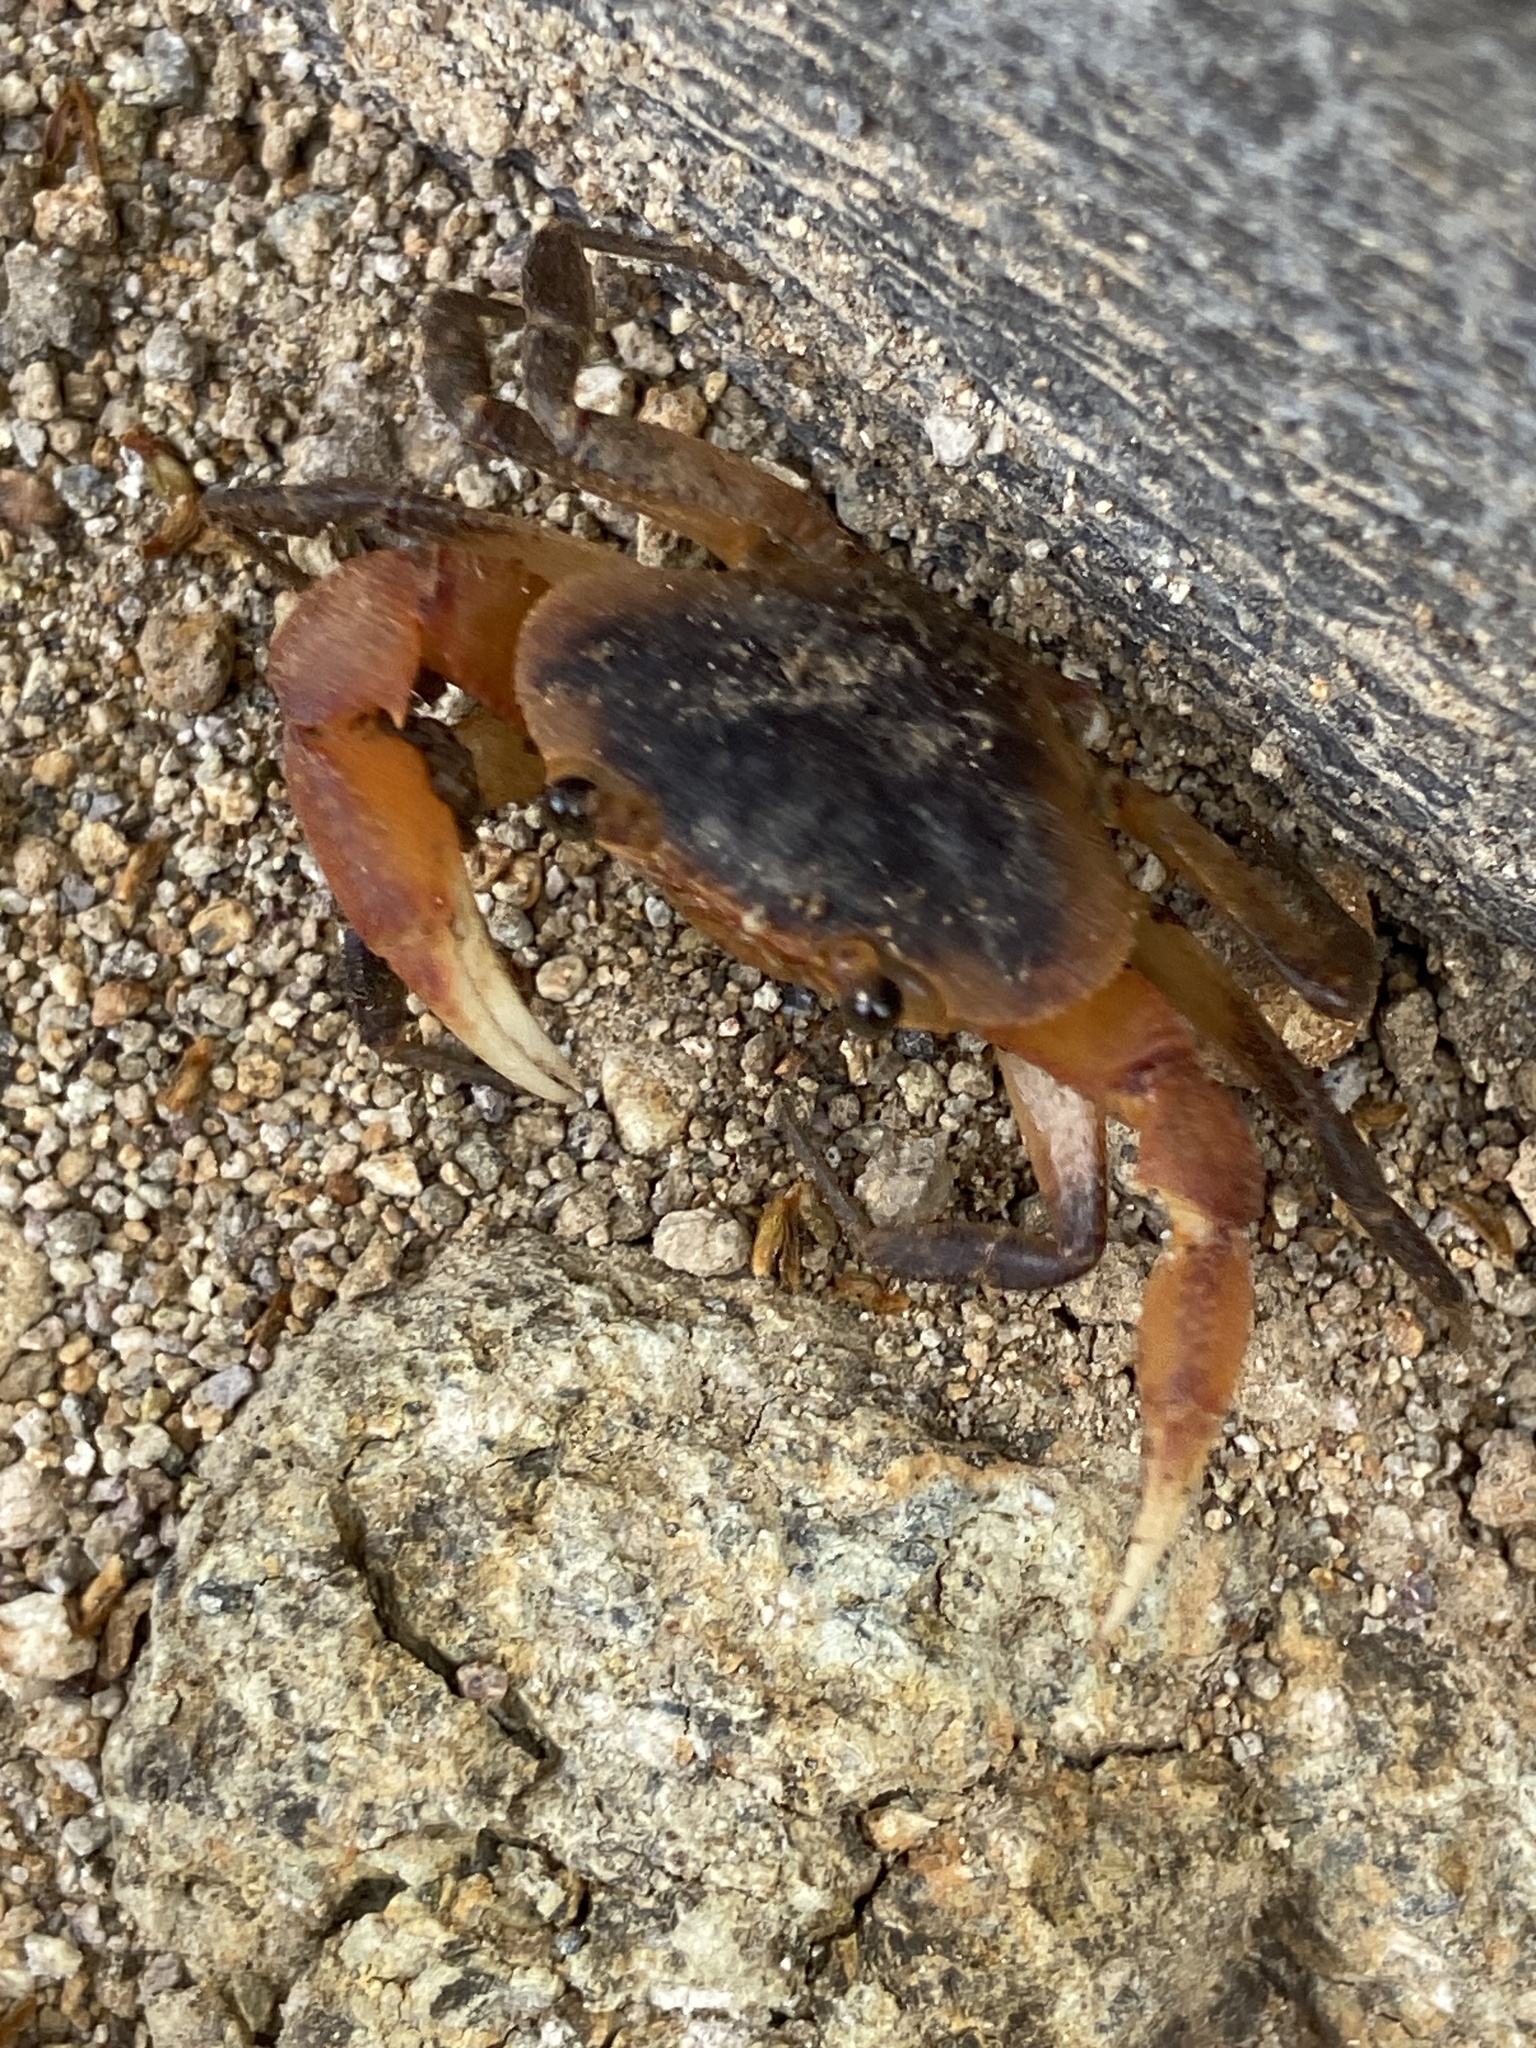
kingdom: Animalia
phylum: Arthropoda
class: Malacostraca
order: Decapoda
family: Pseudothelphusidae
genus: Guinotia
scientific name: Guinotia dentata
